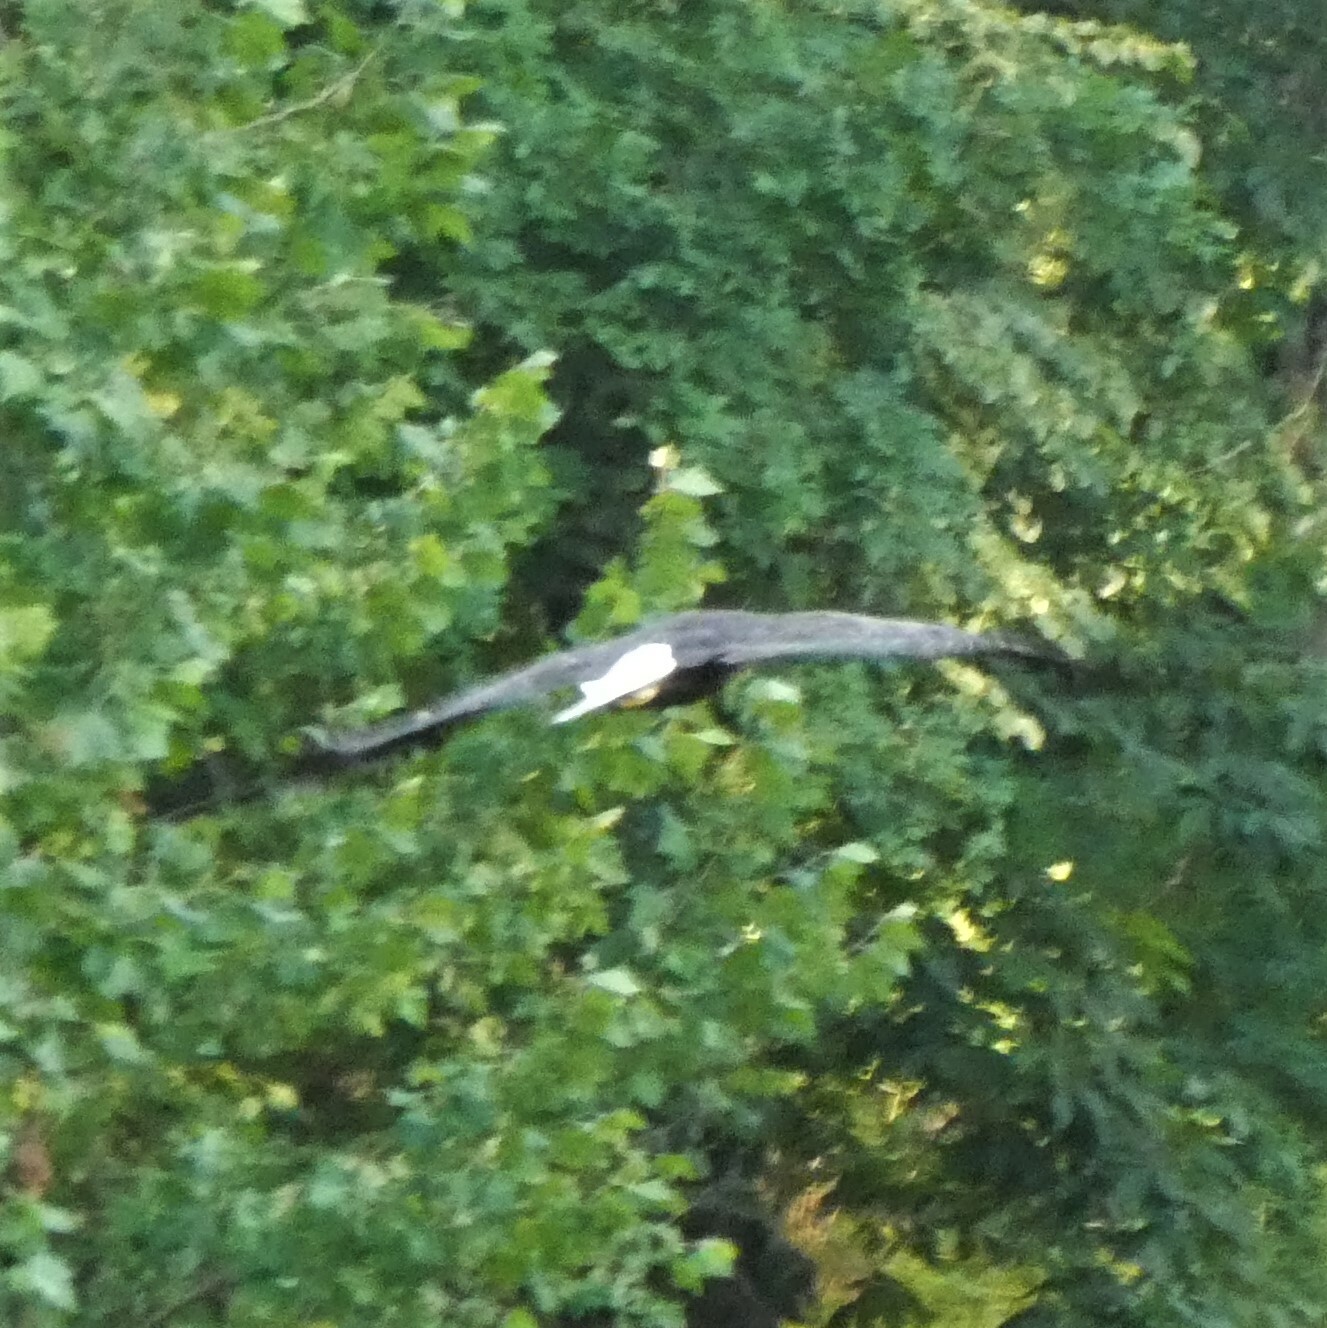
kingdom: Animalia
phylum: Chordata
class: Aves
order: Accipitriformes
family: Accipitridae
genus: Haliaeetus
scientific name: Haliaeetus leucocephalus
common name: Bald eagle
